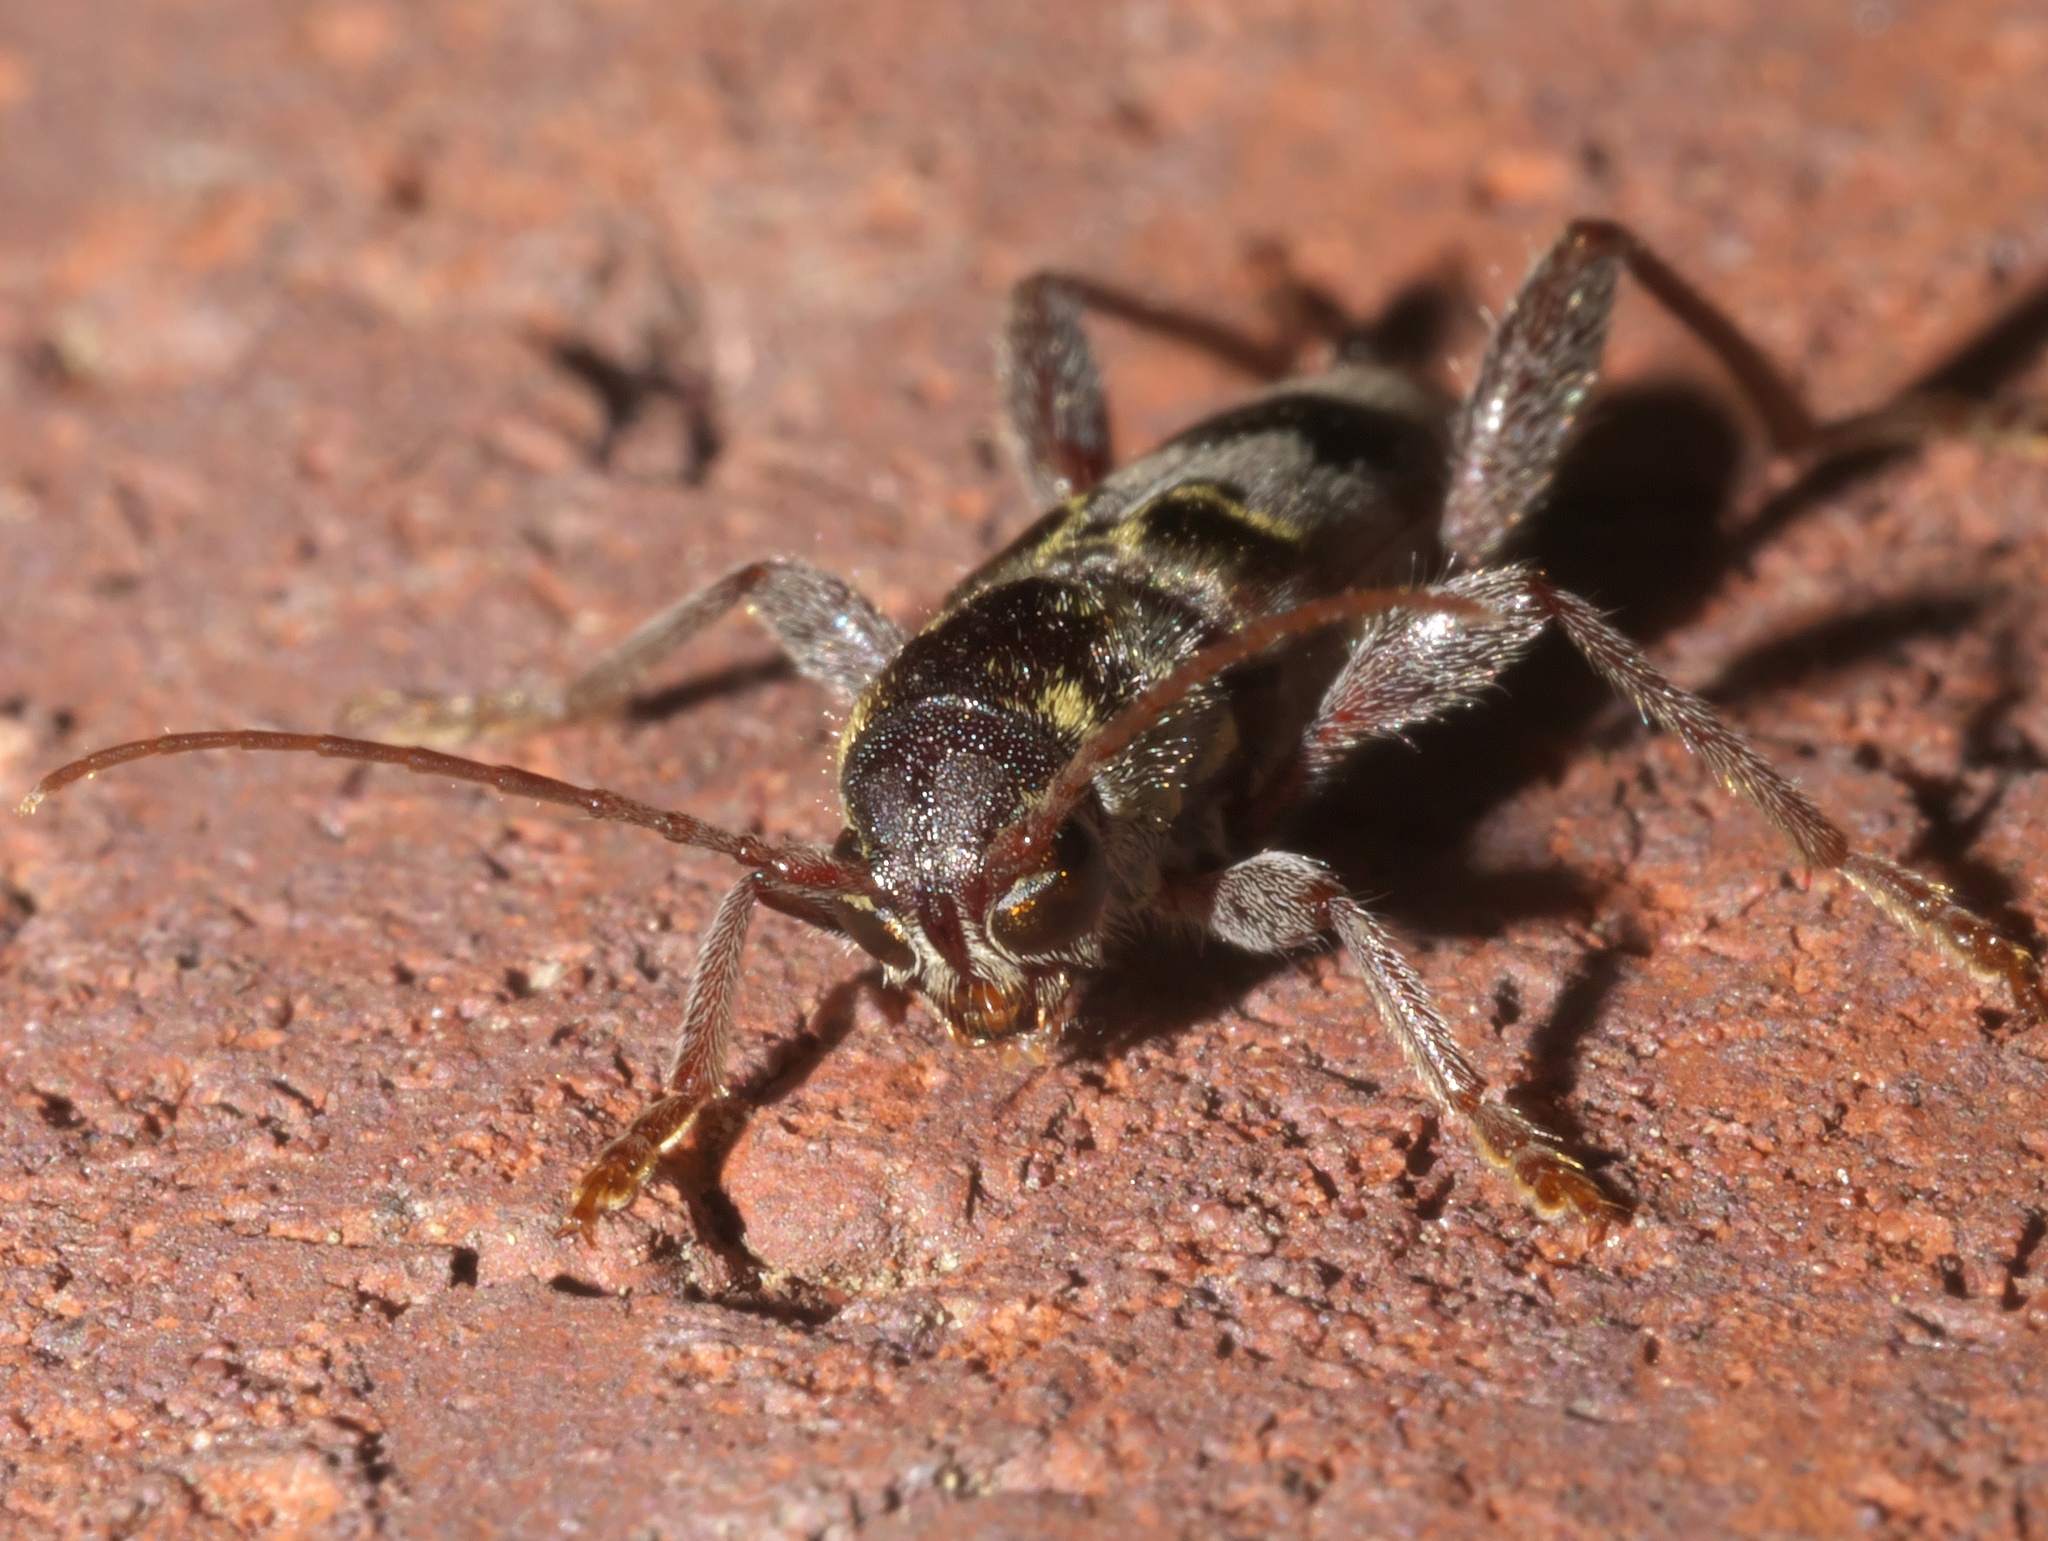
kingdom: Animalia
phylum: Arthropoda
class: Insecta
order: Coleoptera
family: Cerambycidae
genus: Xylotrechus
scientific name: Xylotrechus colonus
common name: Long-horned beetle
